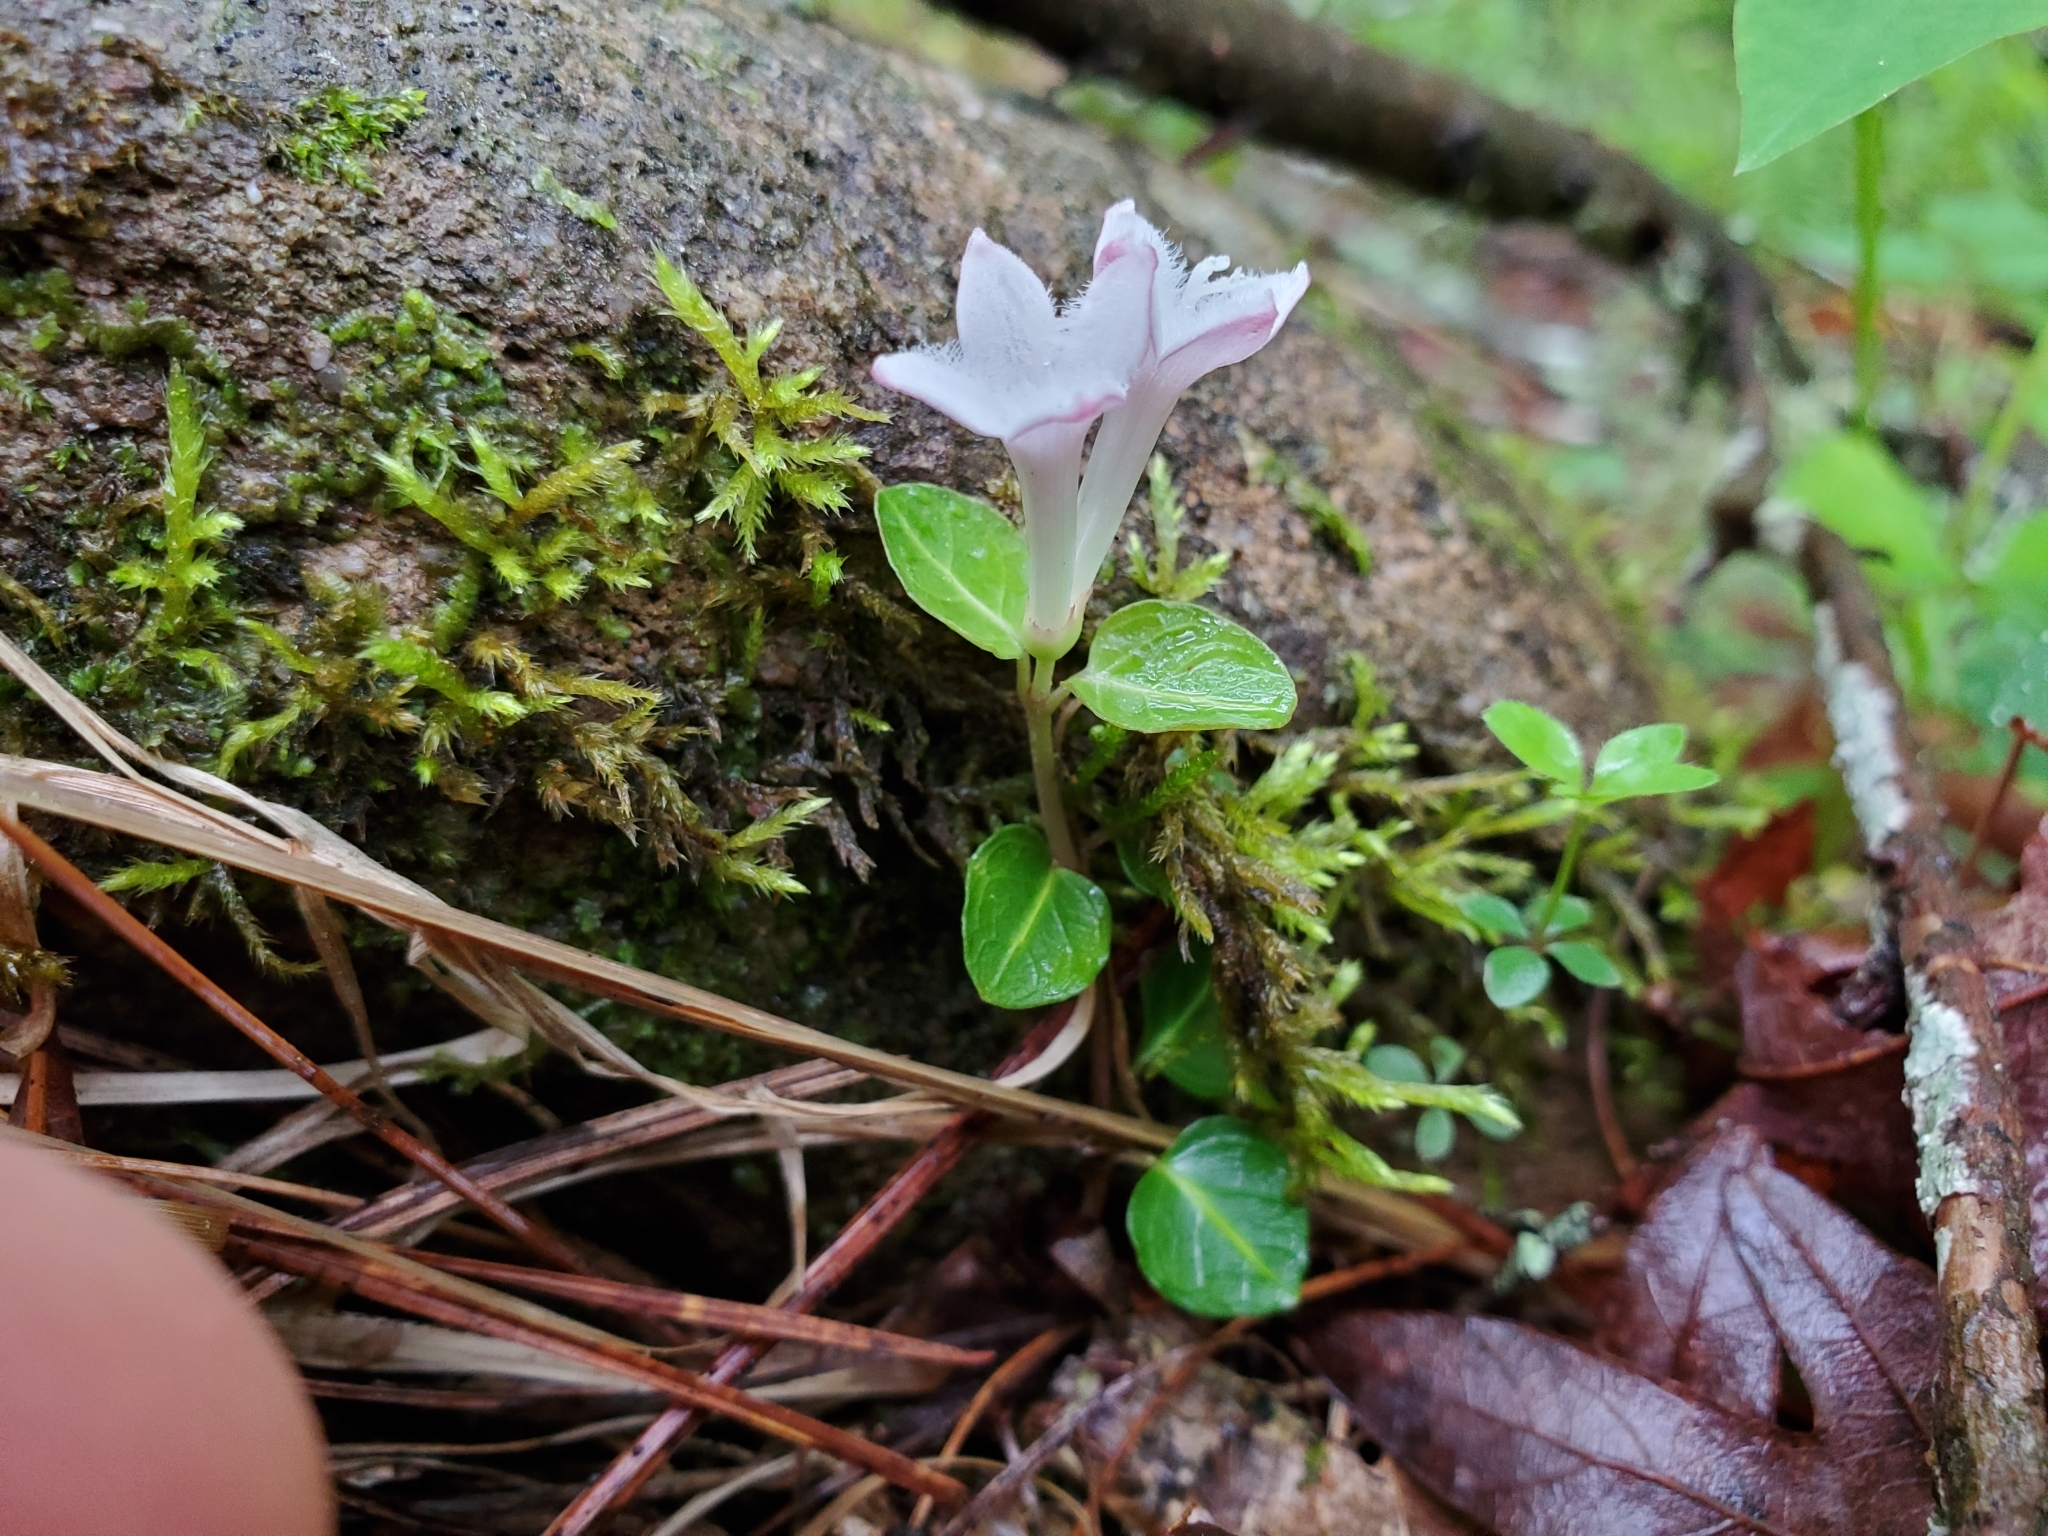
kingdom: Plantae
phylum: Tracheophyta
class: Magnoliopsida
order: Gentianales
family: Rubiaceae
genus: Mitchella
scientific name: Mitchella repens
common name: Partridge-berry
